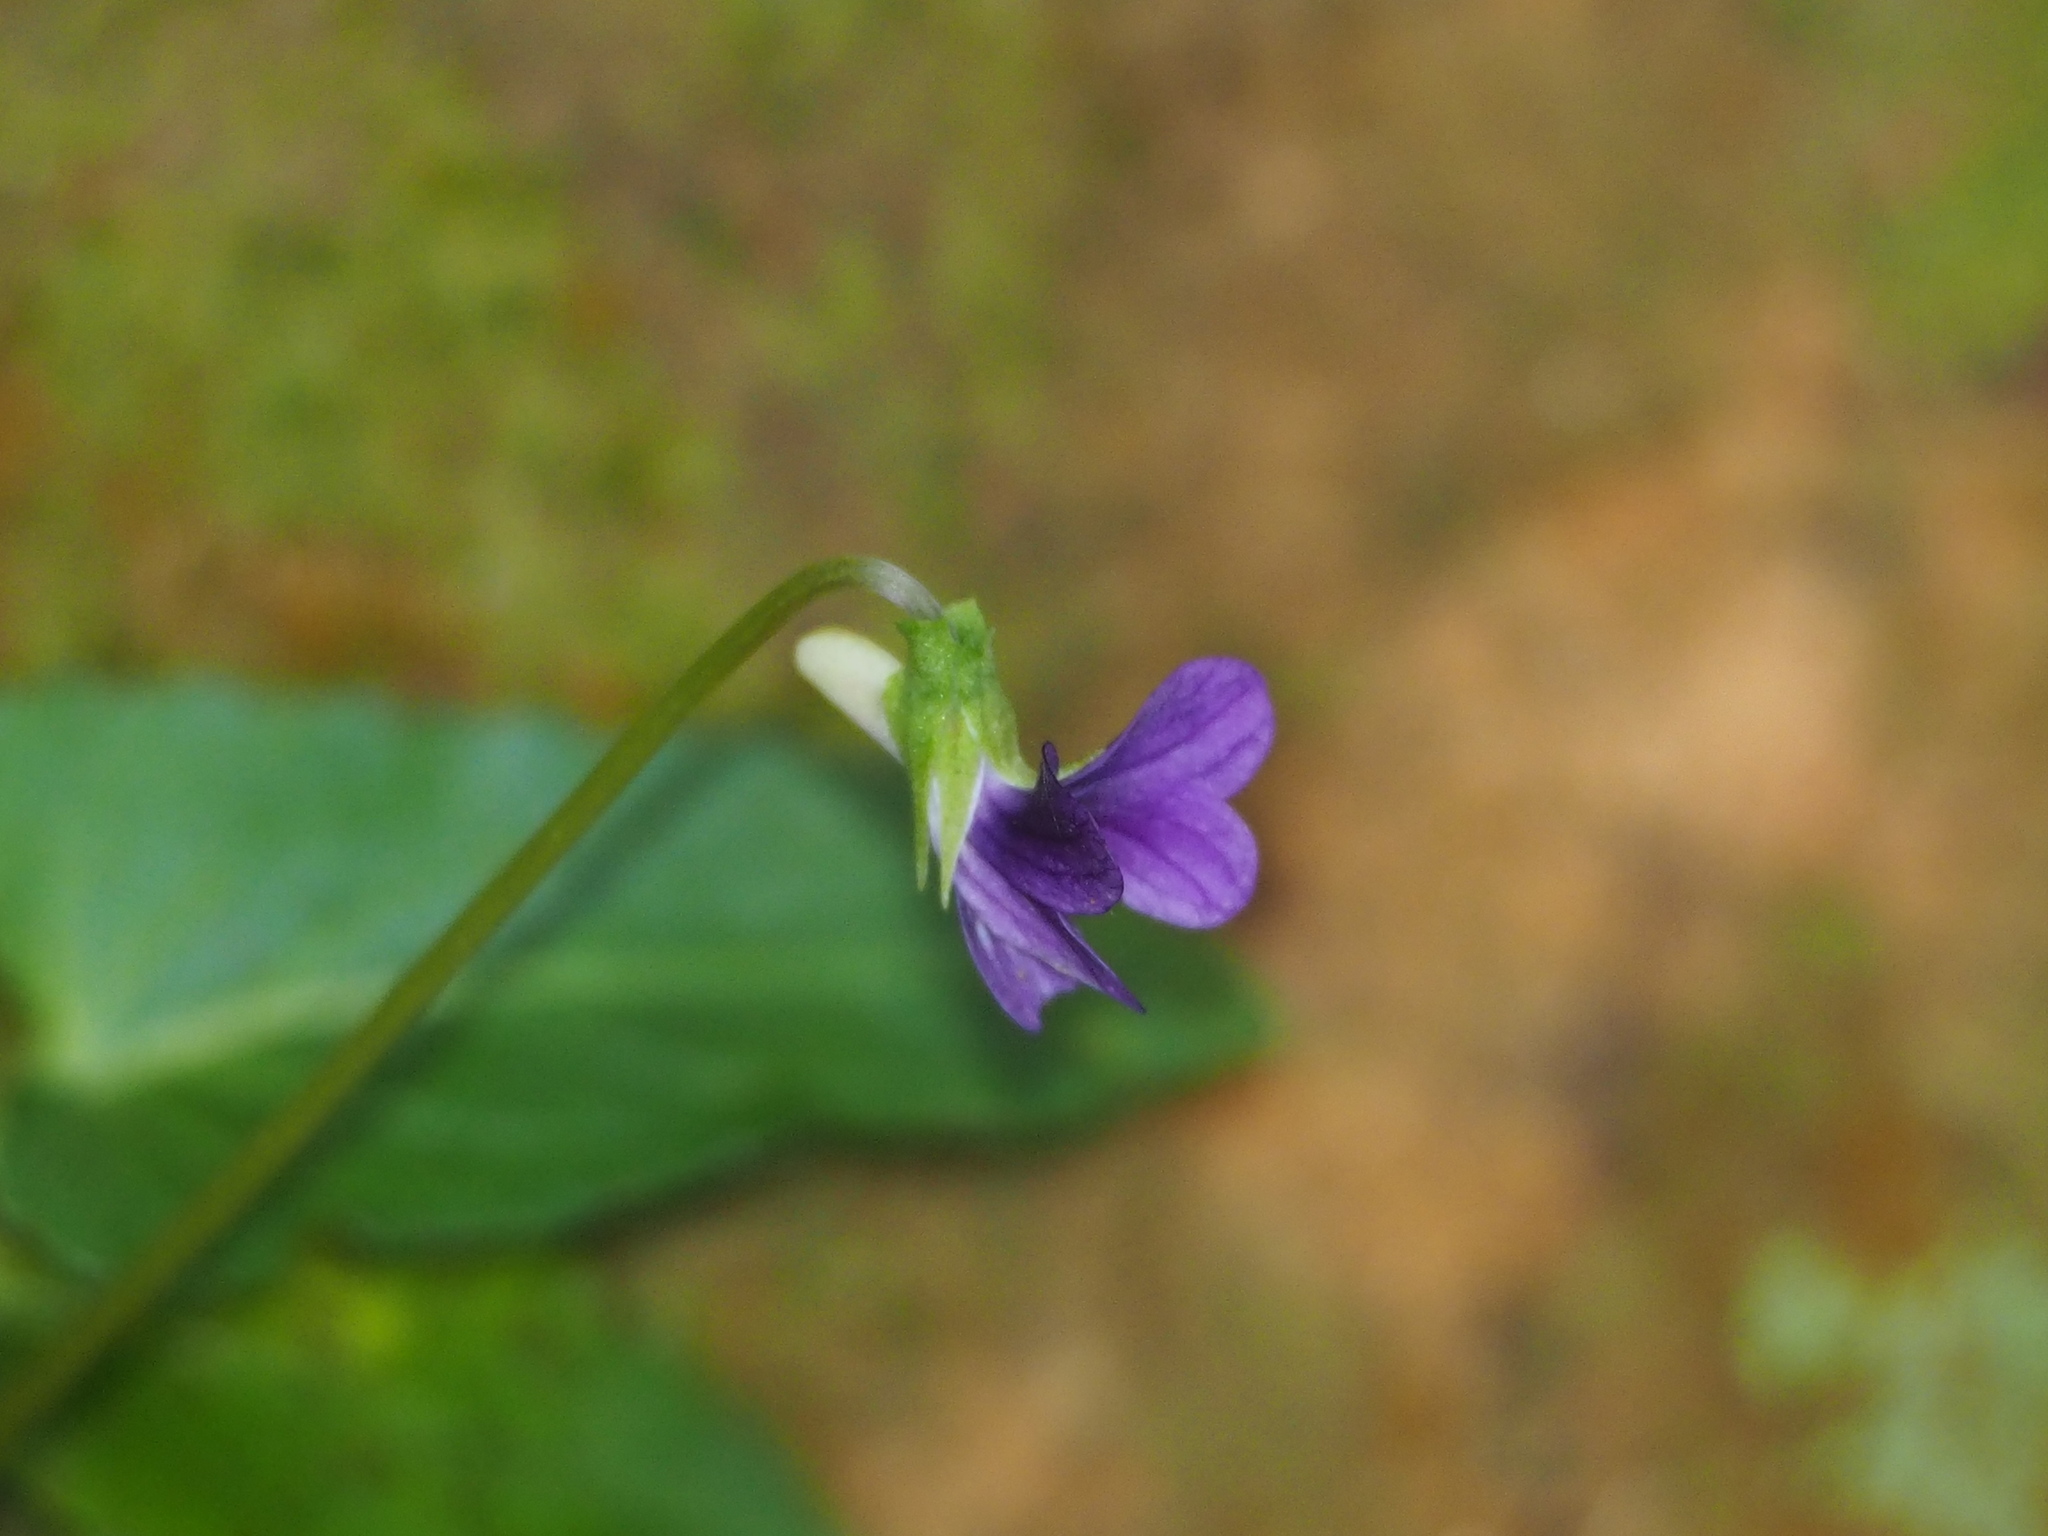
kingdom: Plantae
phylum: Tracheophyta
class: Magnoliopsida
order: Malpighiales
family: Violaceae
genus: Viola
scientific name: Viola inconspicua
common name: Long sepal violet
